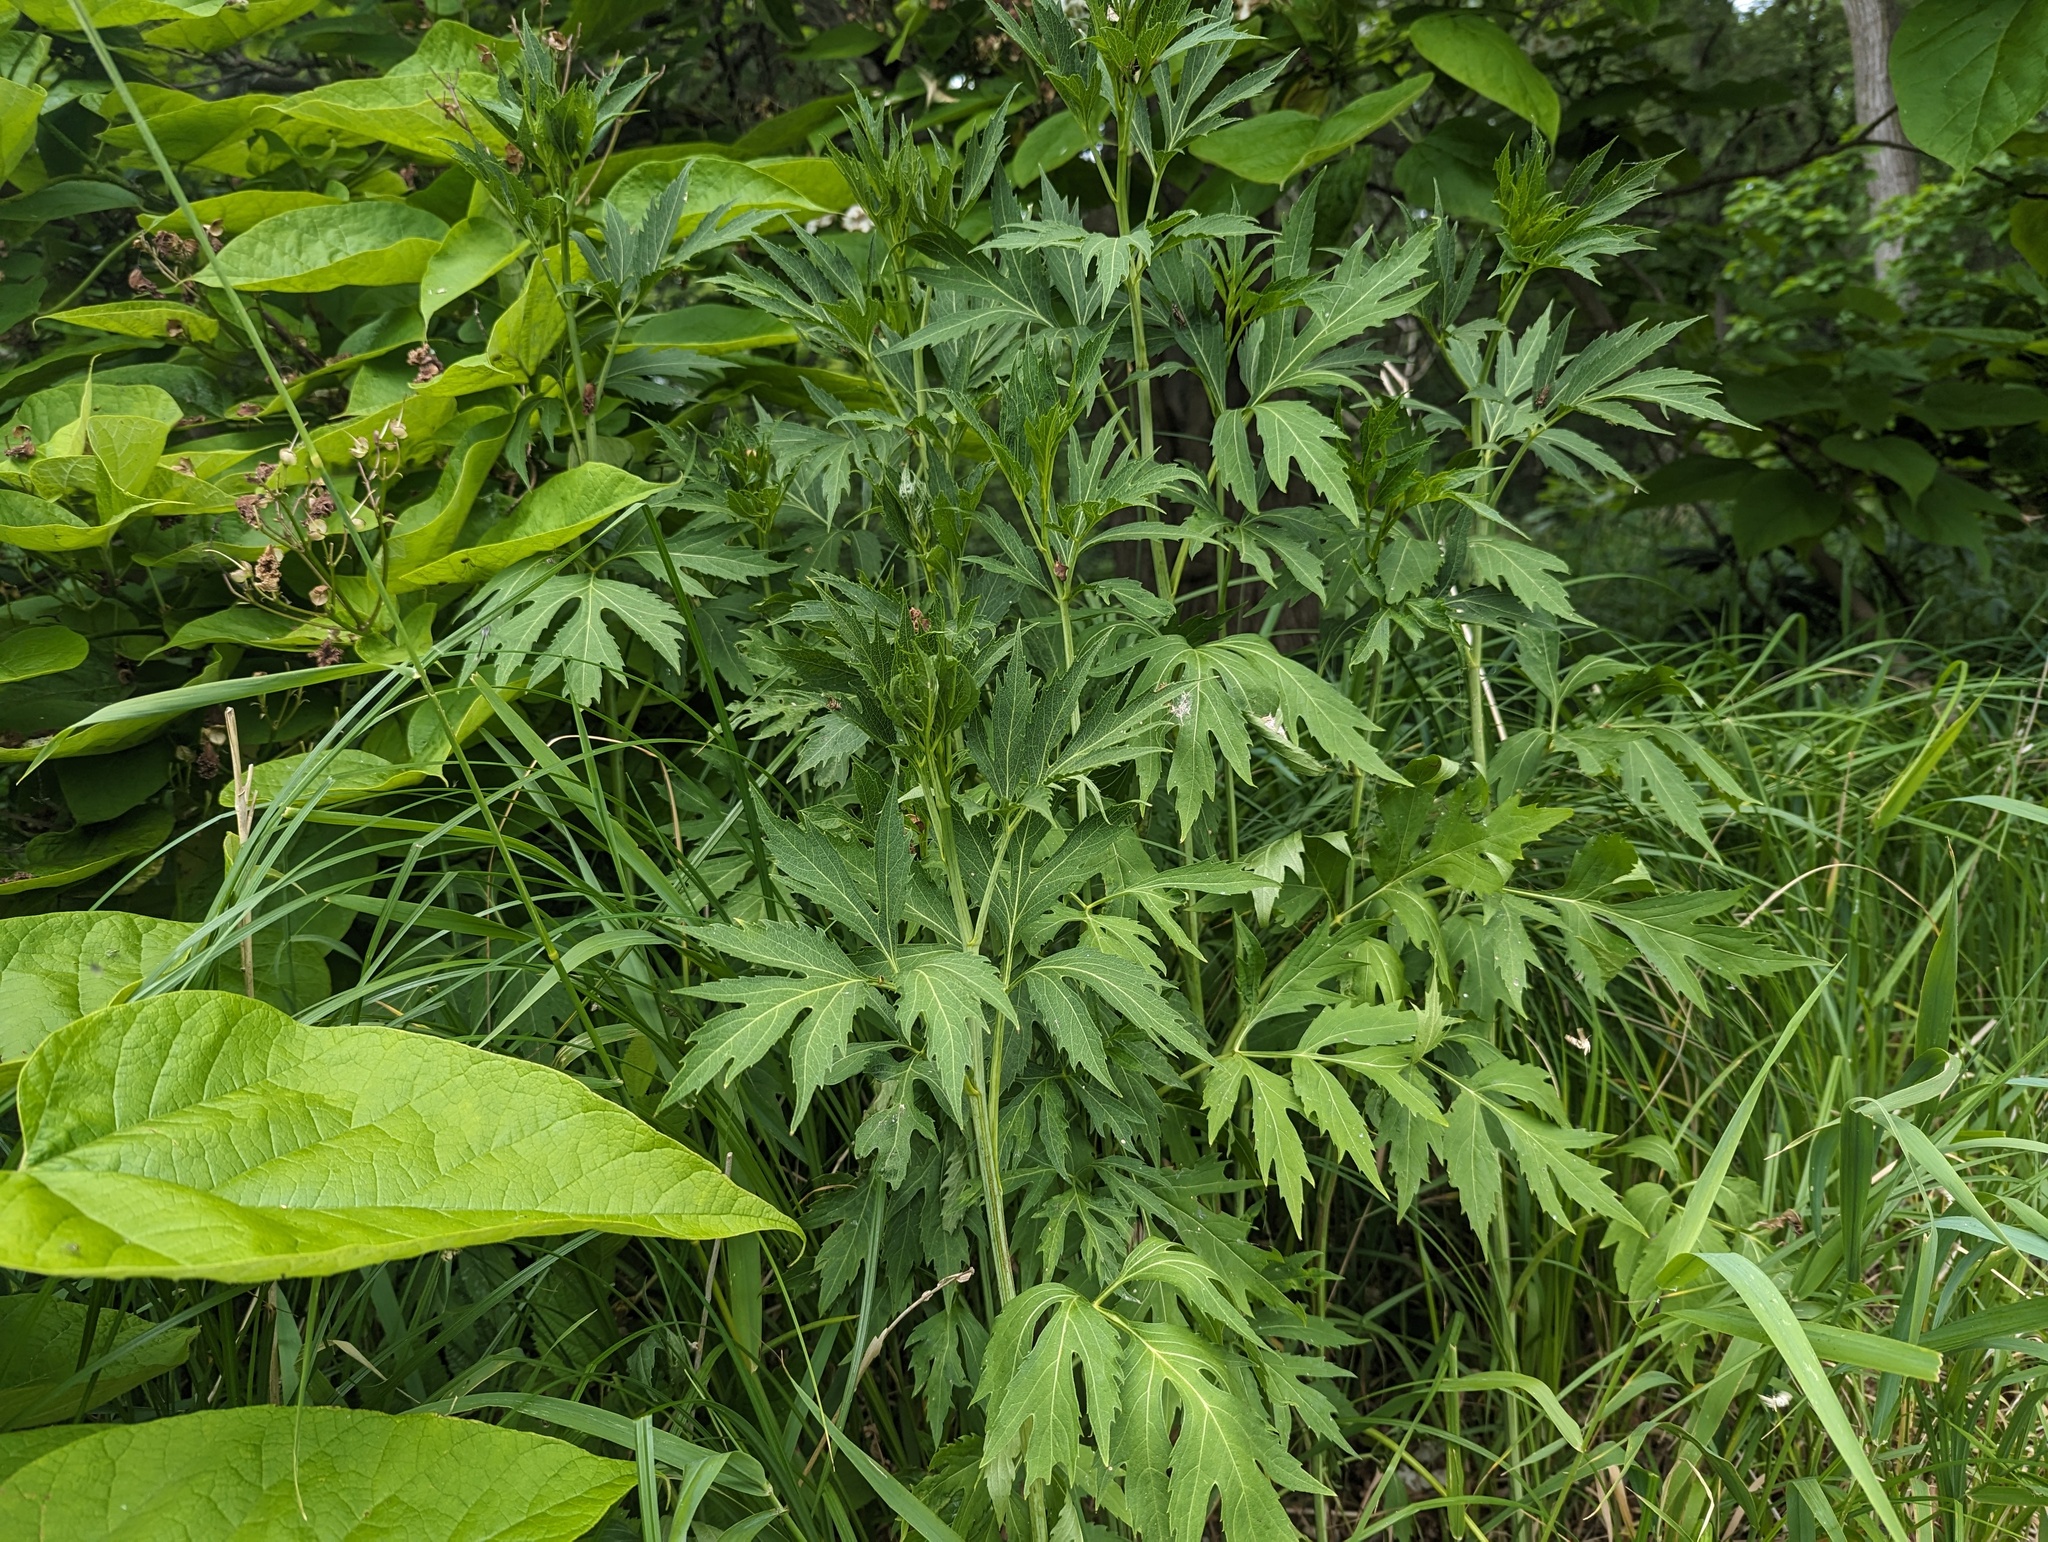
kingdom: Plantae
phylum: Tracheophyta
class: Magnoliopsida
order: Asterales
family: Asteraceae
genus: Rudbeckia
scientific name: Rudbeckia laciniata
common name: Coneflower
